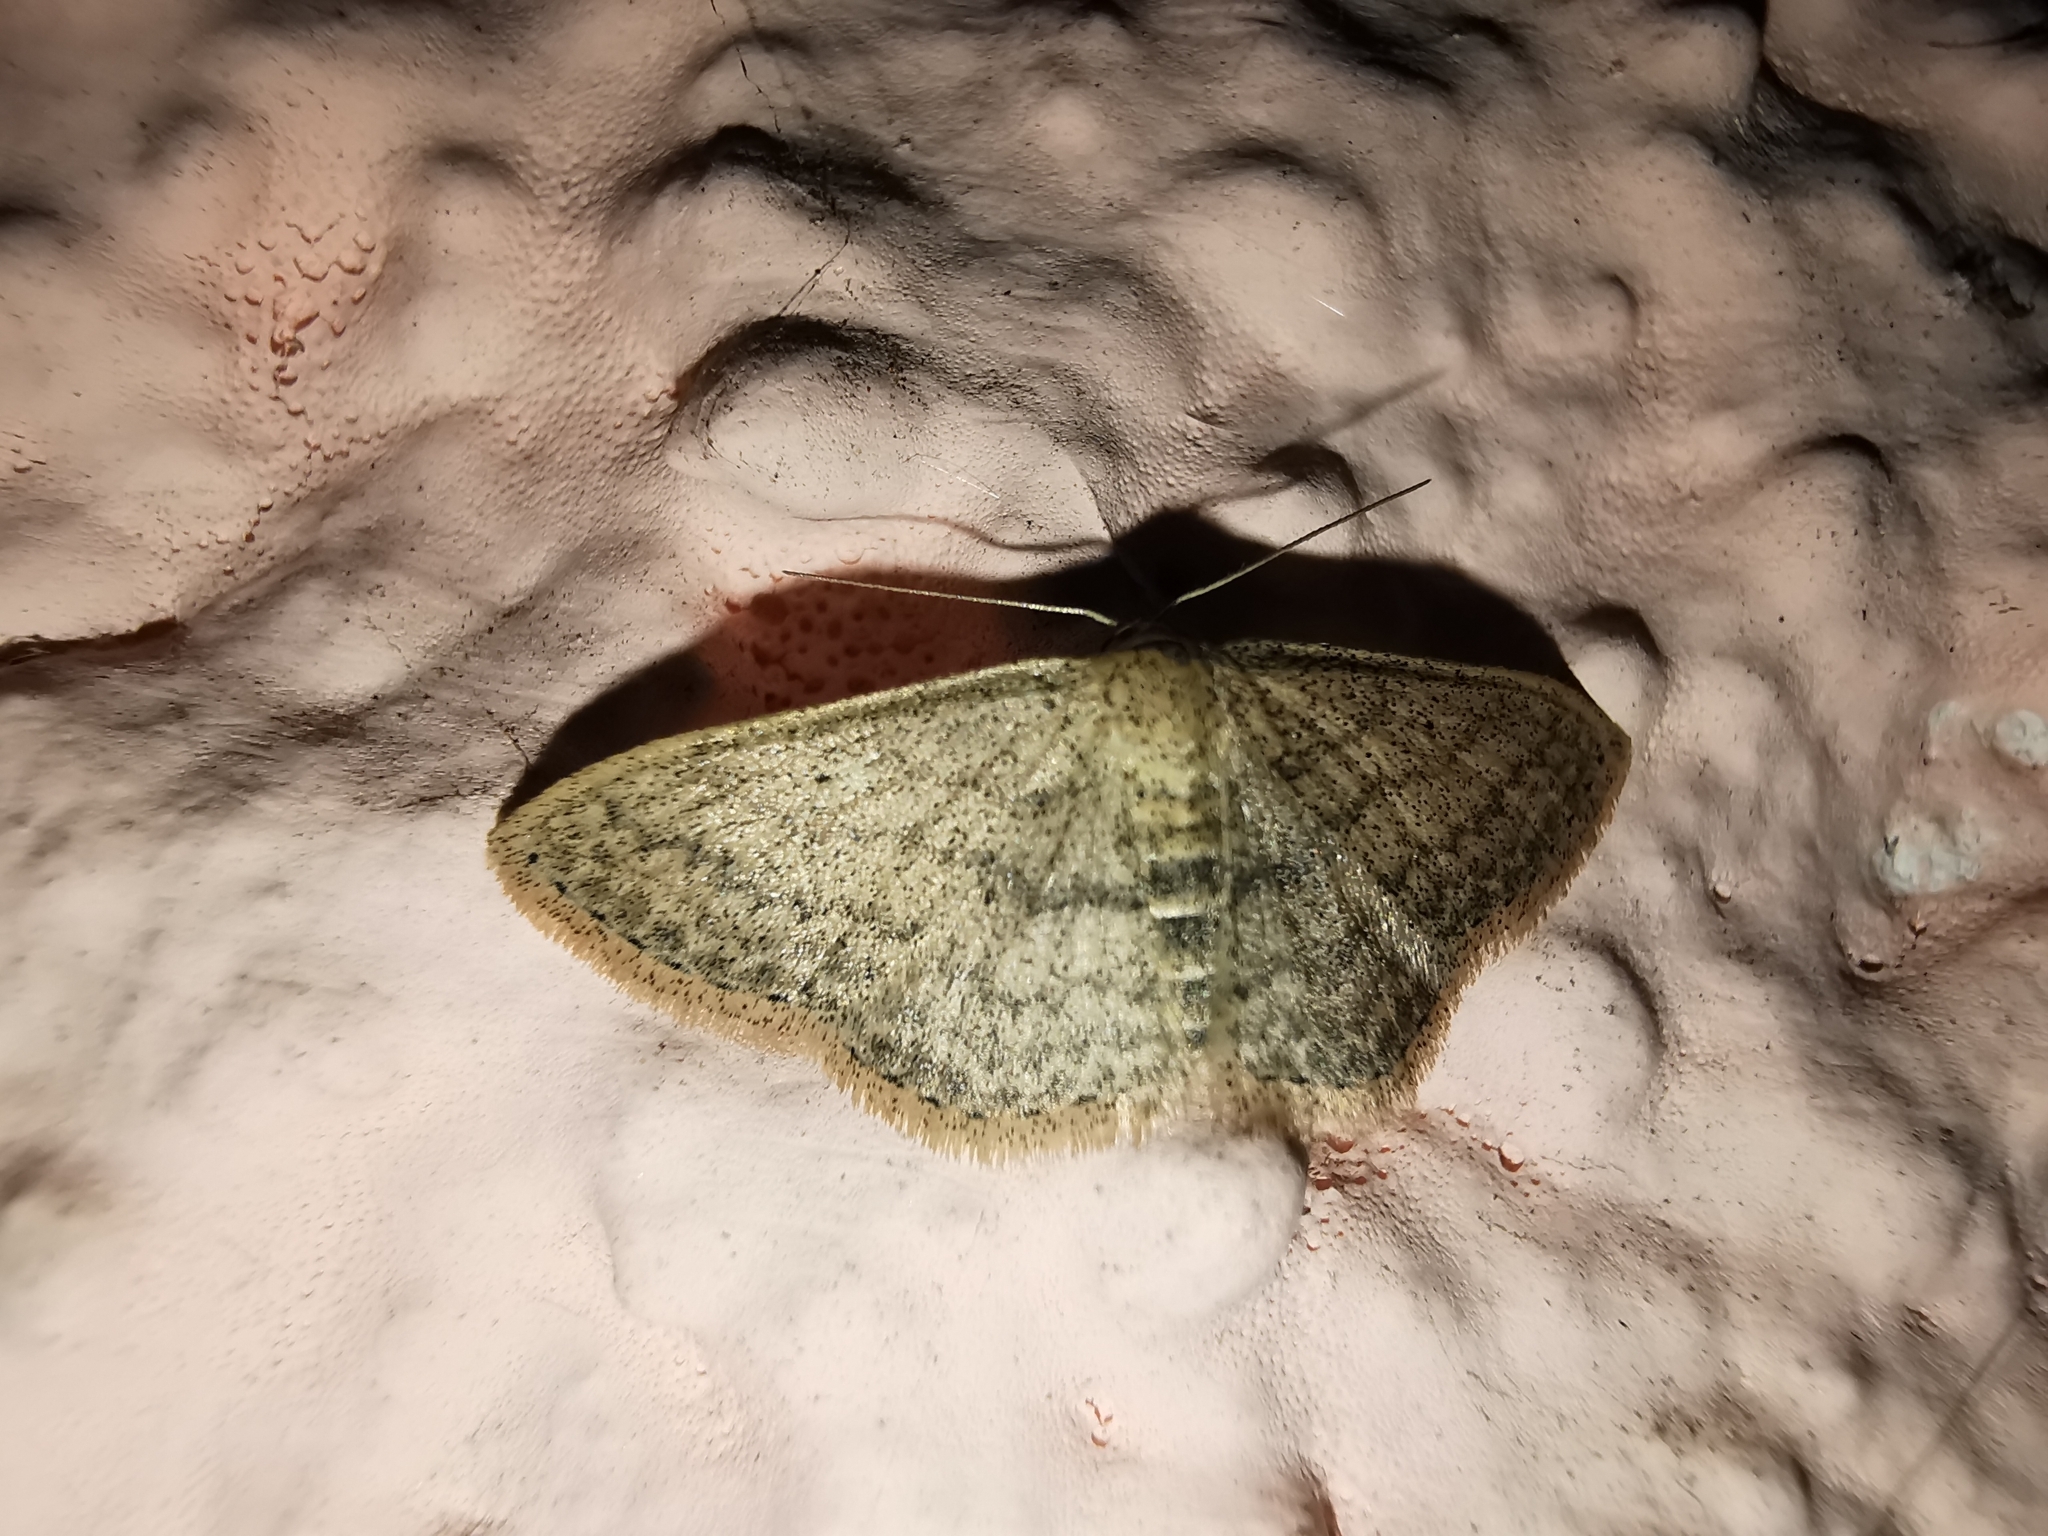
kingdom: Animalia
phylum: Arthropoda
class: Insecta
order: Lepidoptera
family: Geometridae
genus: Scopula
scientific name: Scopula minorata
